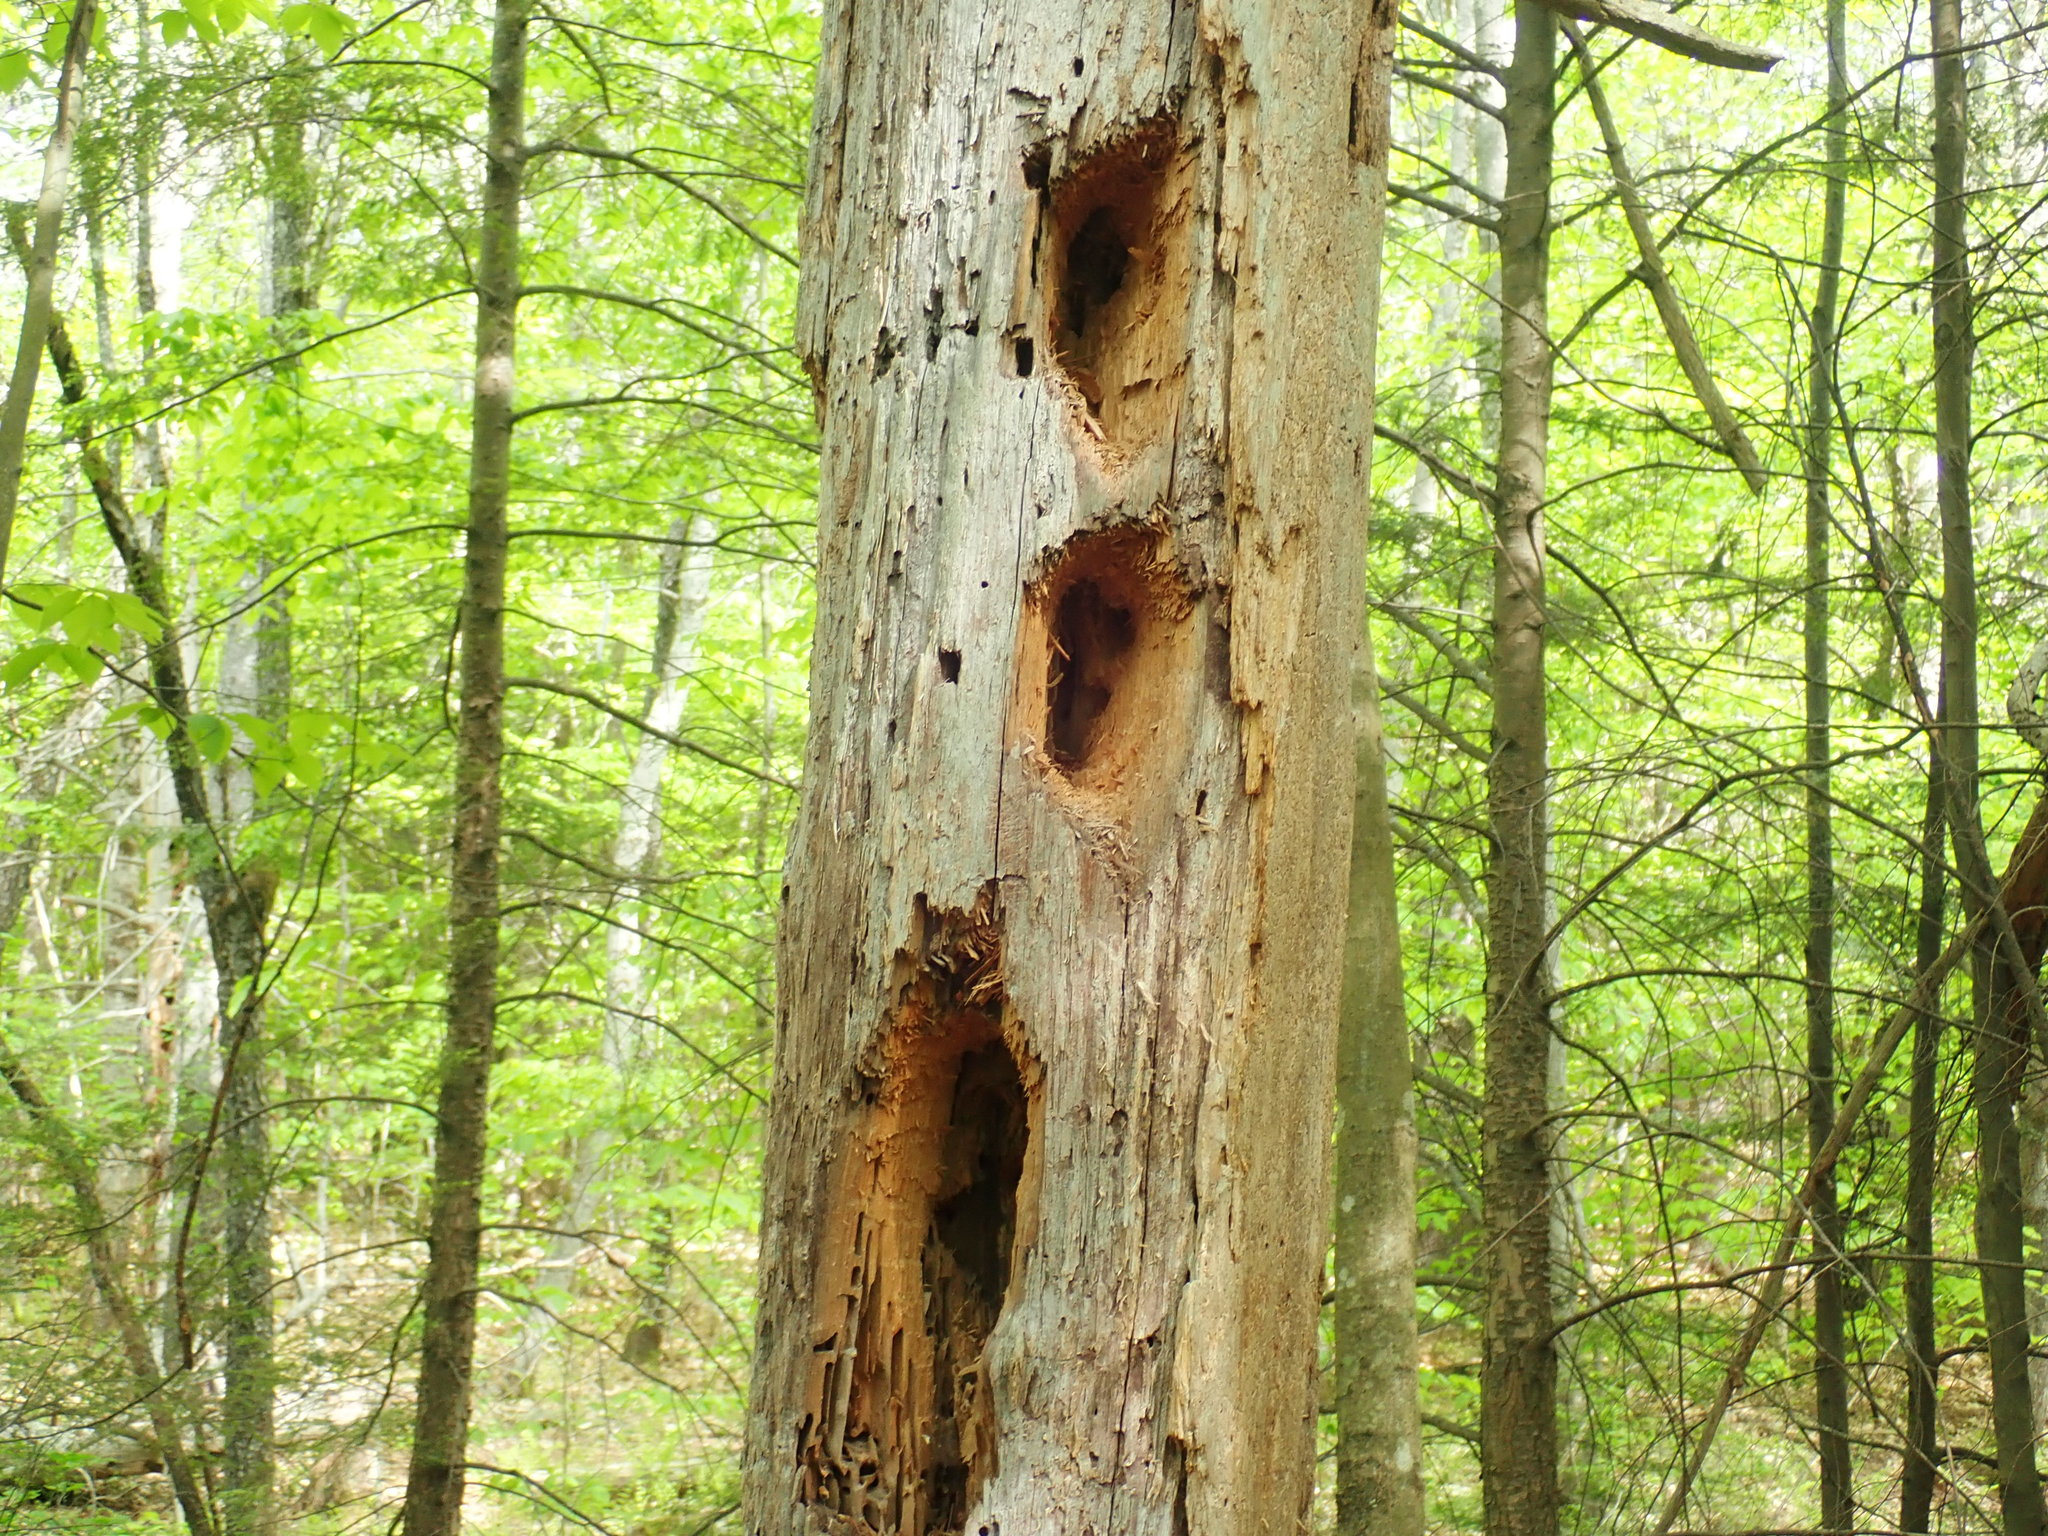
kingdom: Animalia
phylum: Chordata
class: Aves
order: Piciformes
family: Picidae
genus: Dryocopus
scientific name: Dryocopus pileatus
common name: Pileated woodpecker
